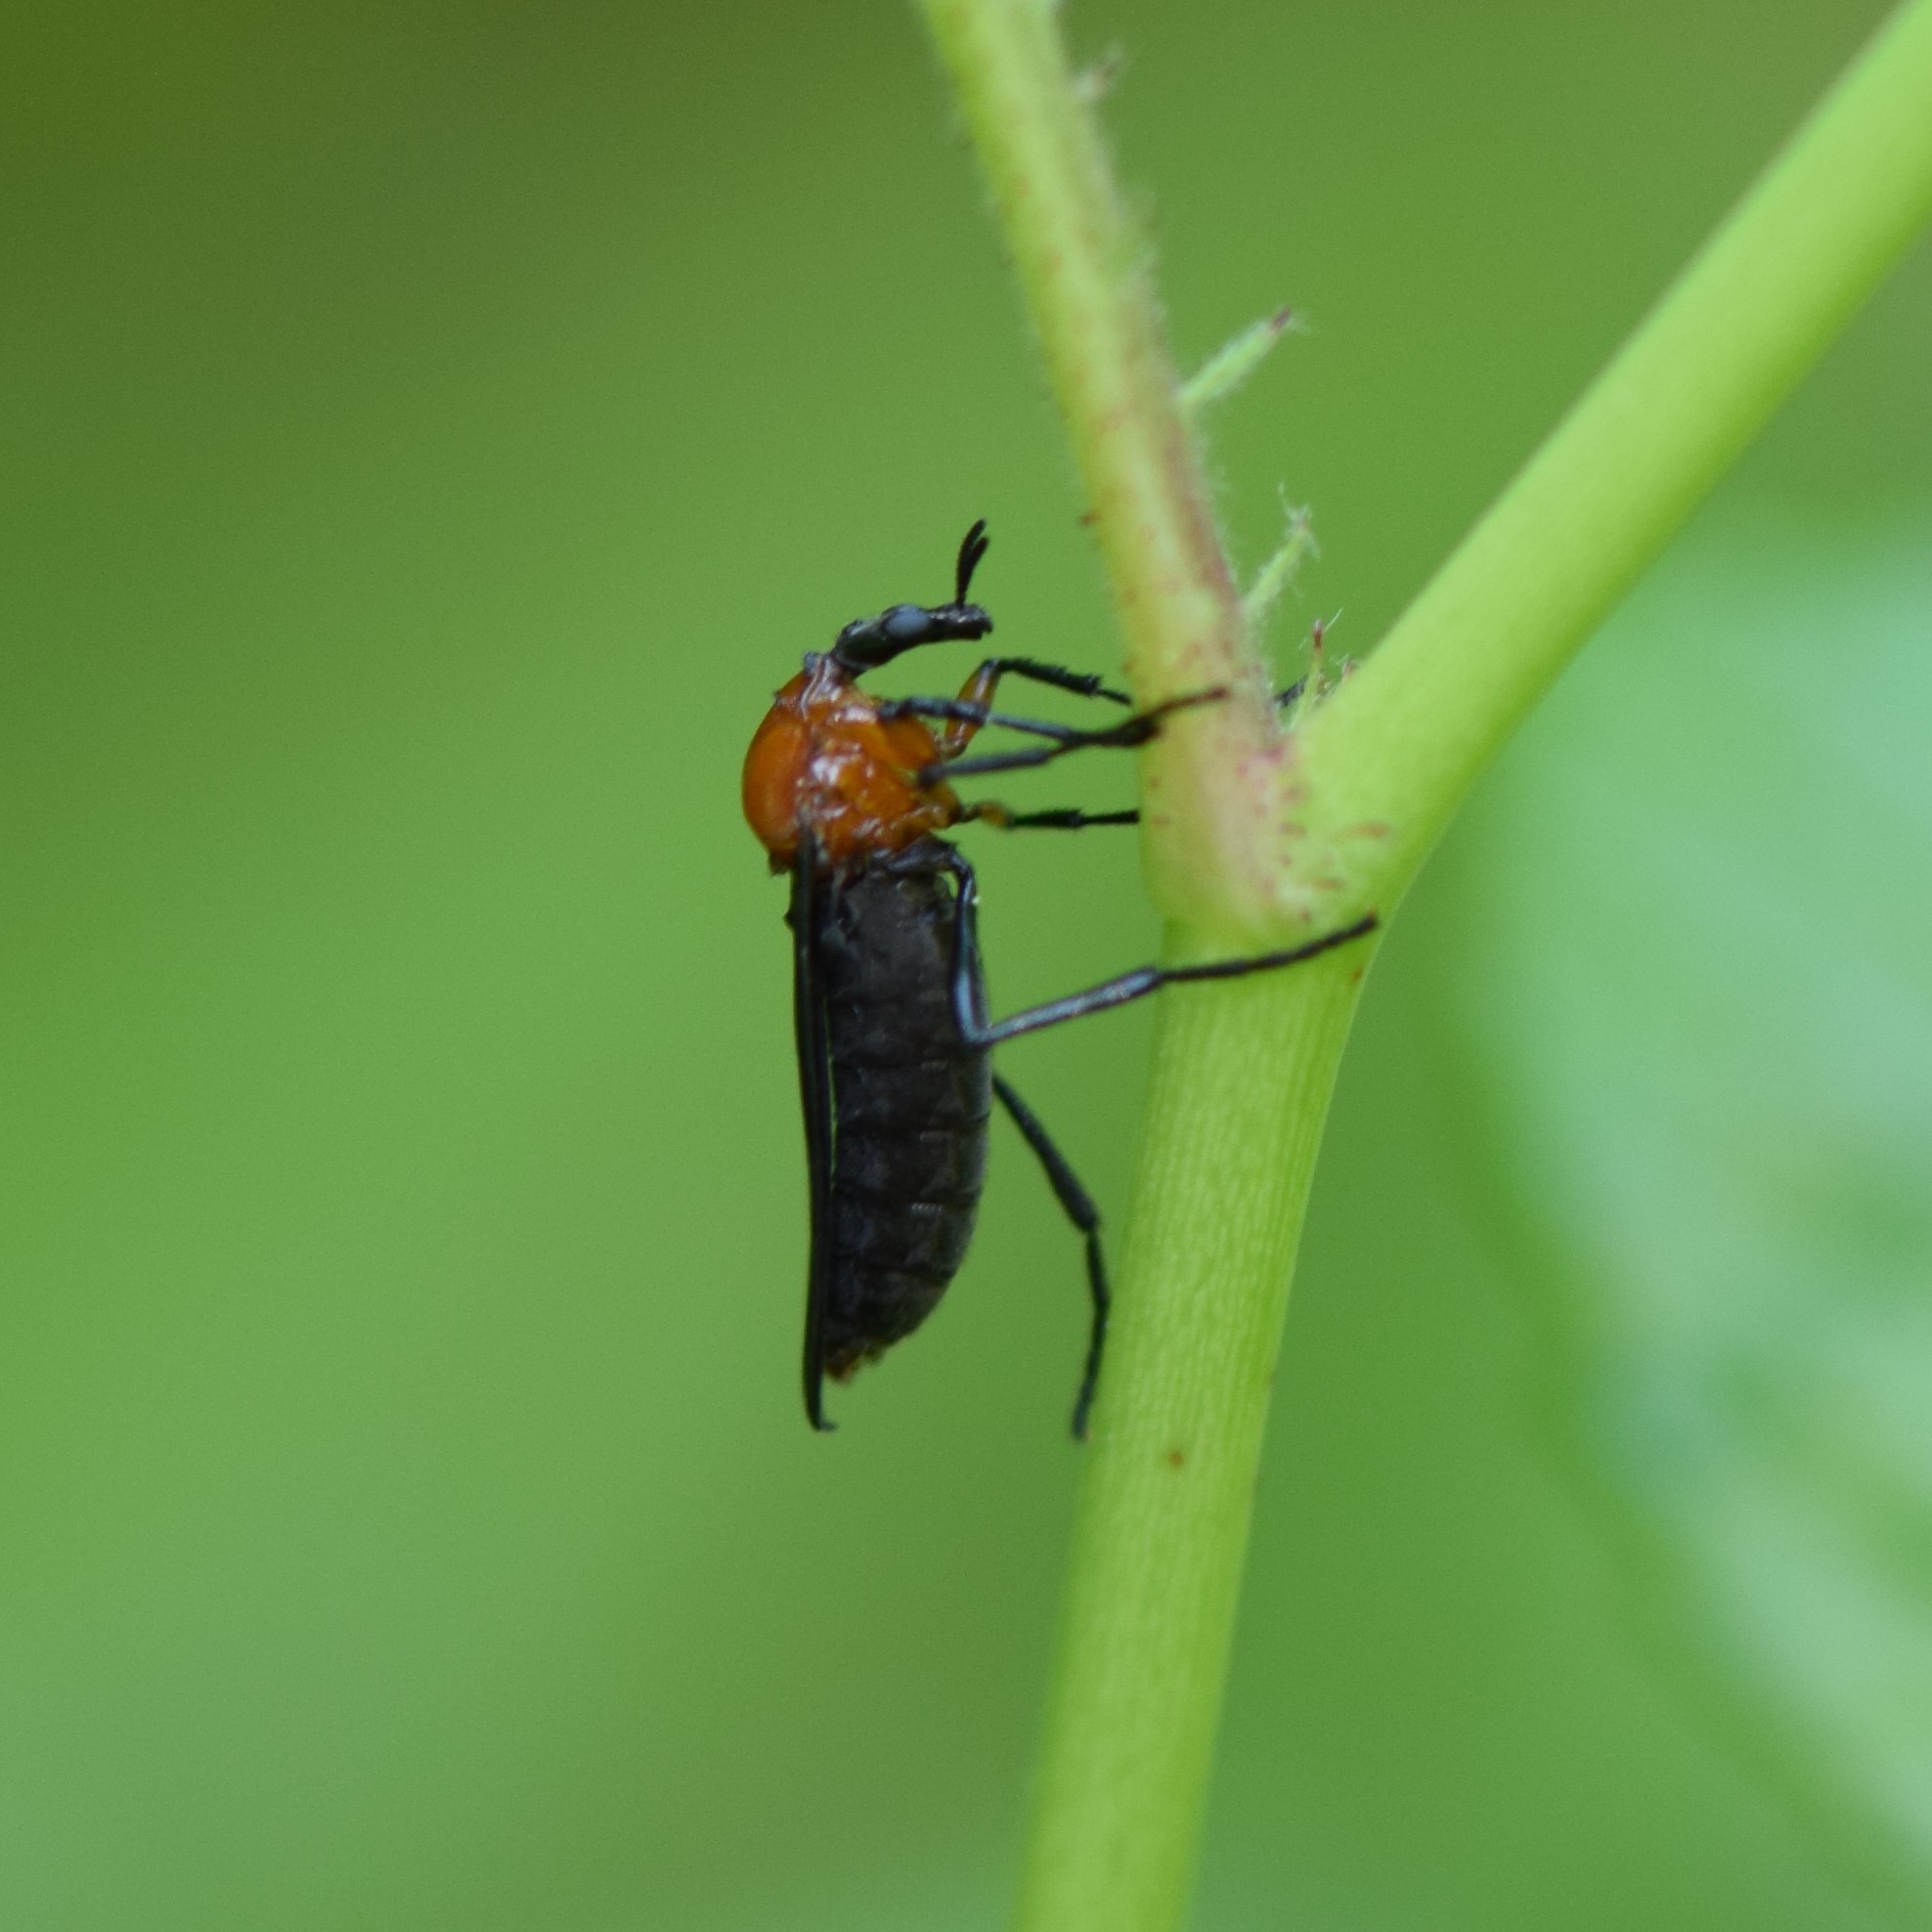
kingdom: Animalia
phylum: Arthropoda
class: Insecta
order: Diptera
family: Bibionidae
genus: Dilophus
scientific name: Dilophus spinipes
